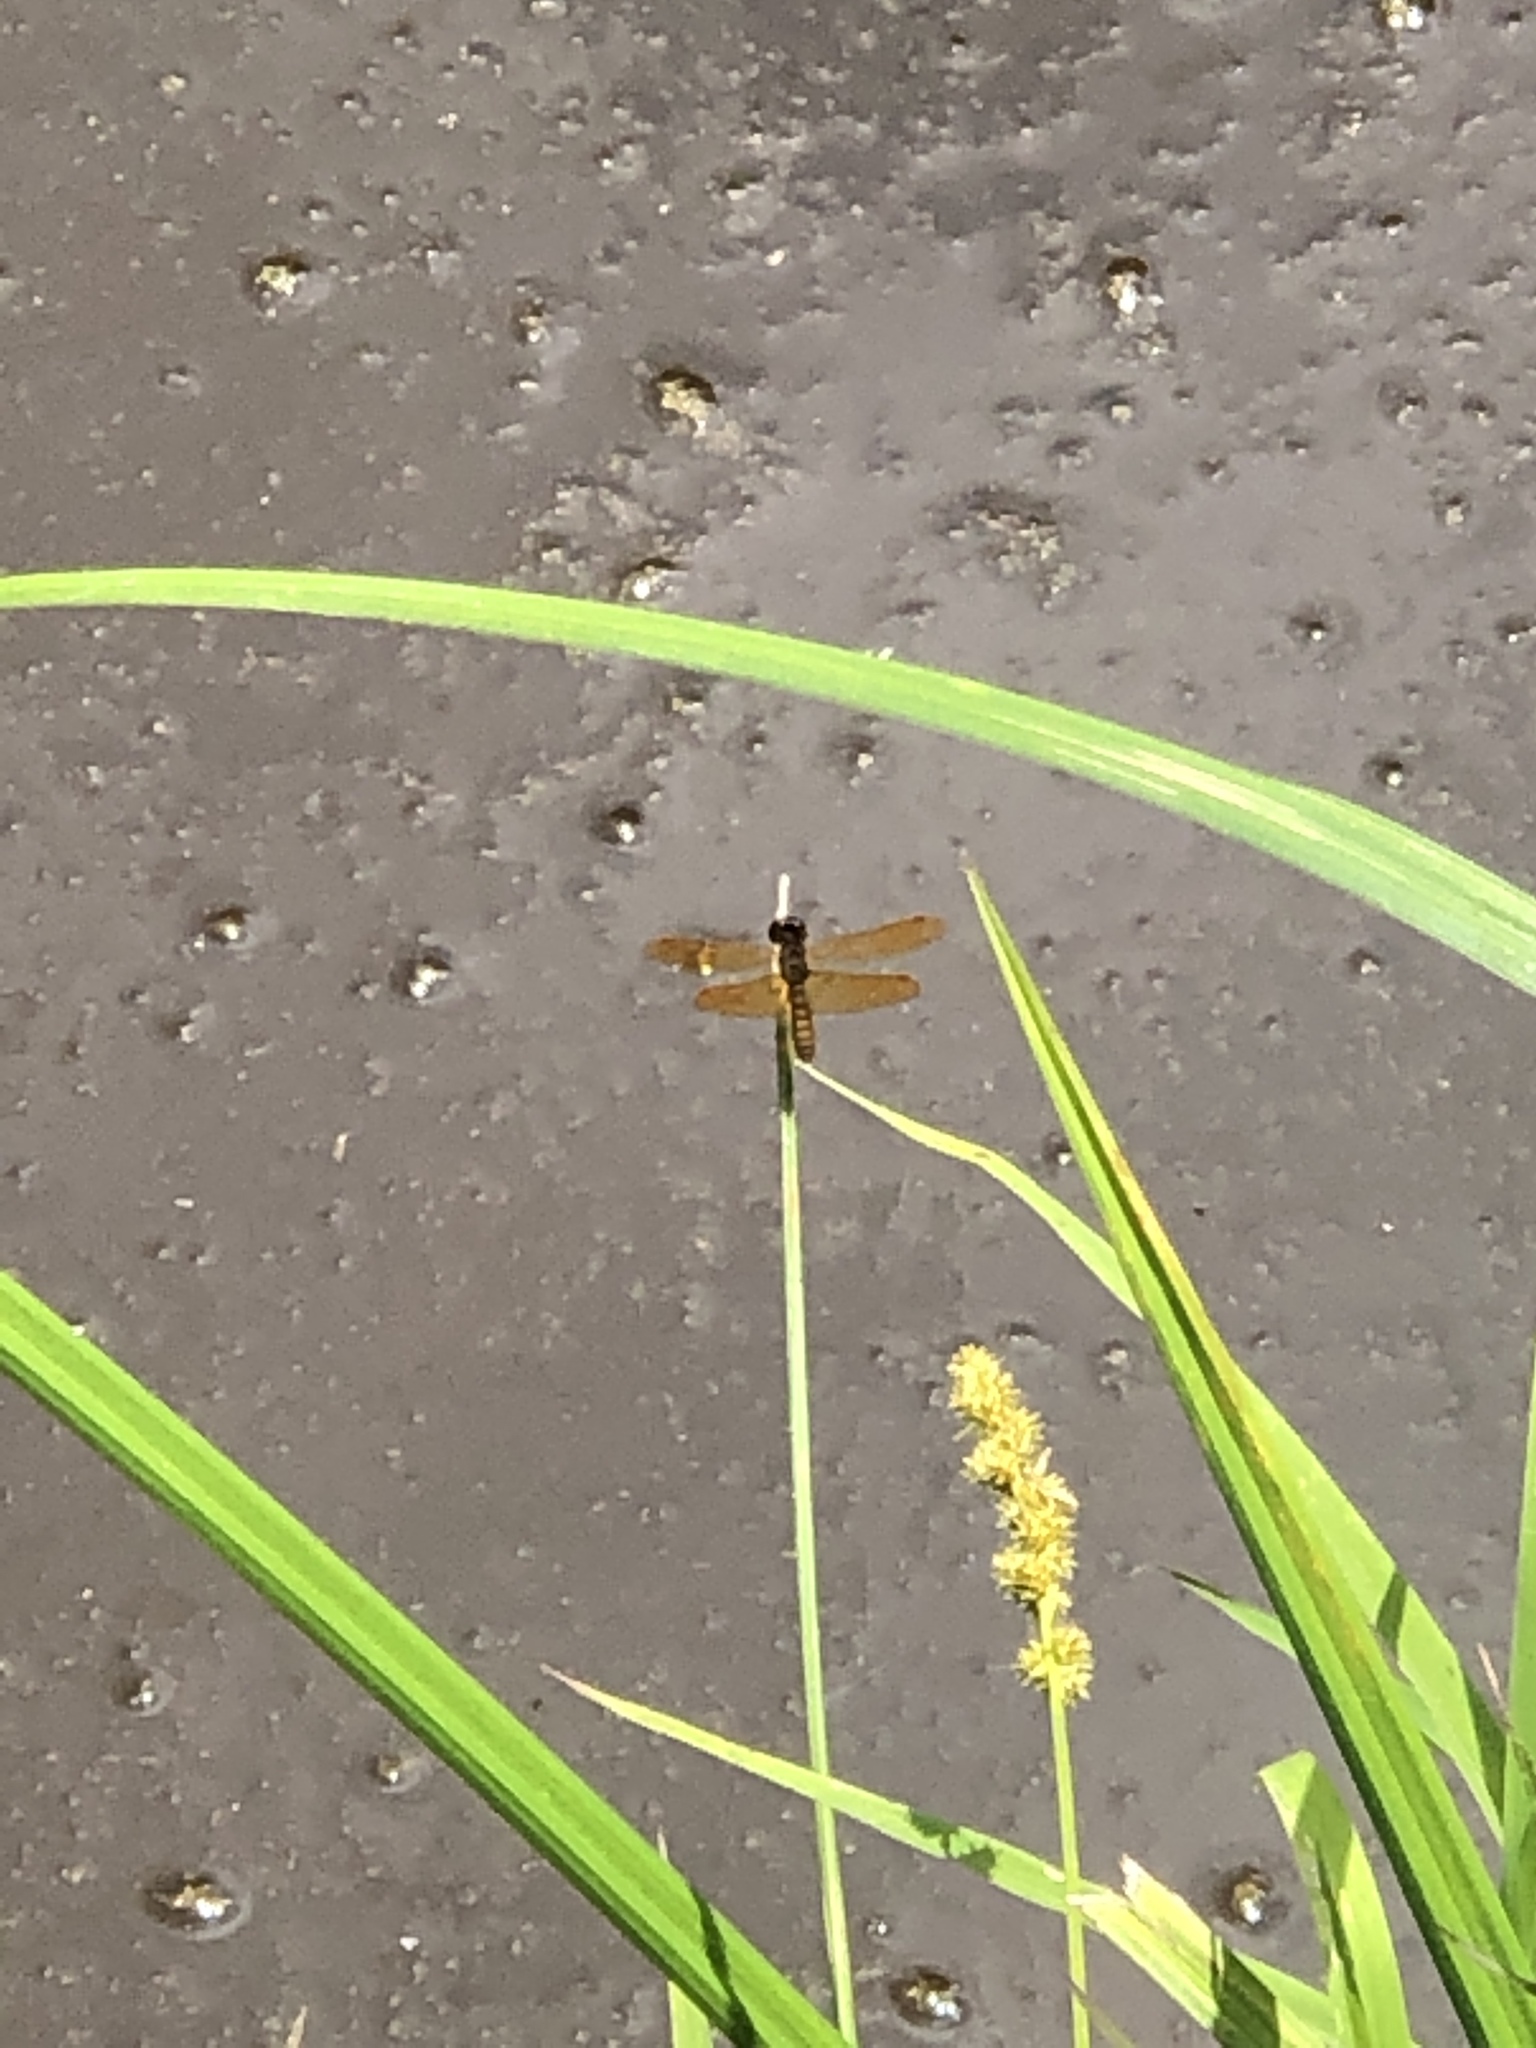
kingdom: Animalia
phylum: Arthropoda
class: Insecta
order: Odonata
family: Libellulidae
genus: Perithemis
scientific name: Perithemis tenera
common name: Eastern amberwing
